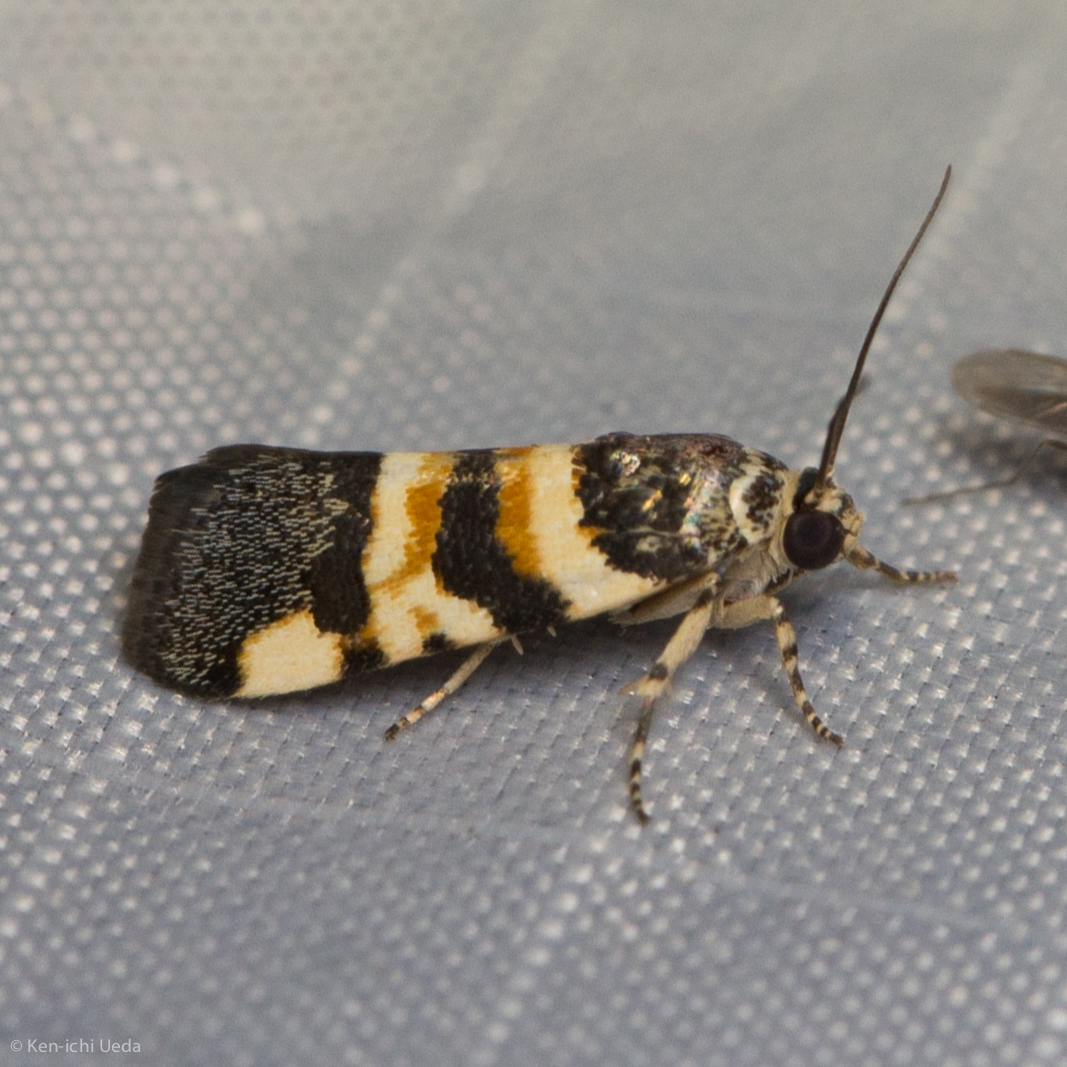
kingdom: Animalia
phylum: Arthropoda
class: Insecta
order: Lepidoptera
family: Noctuidae
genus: Spragueia
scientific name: Spragueia funeralis
